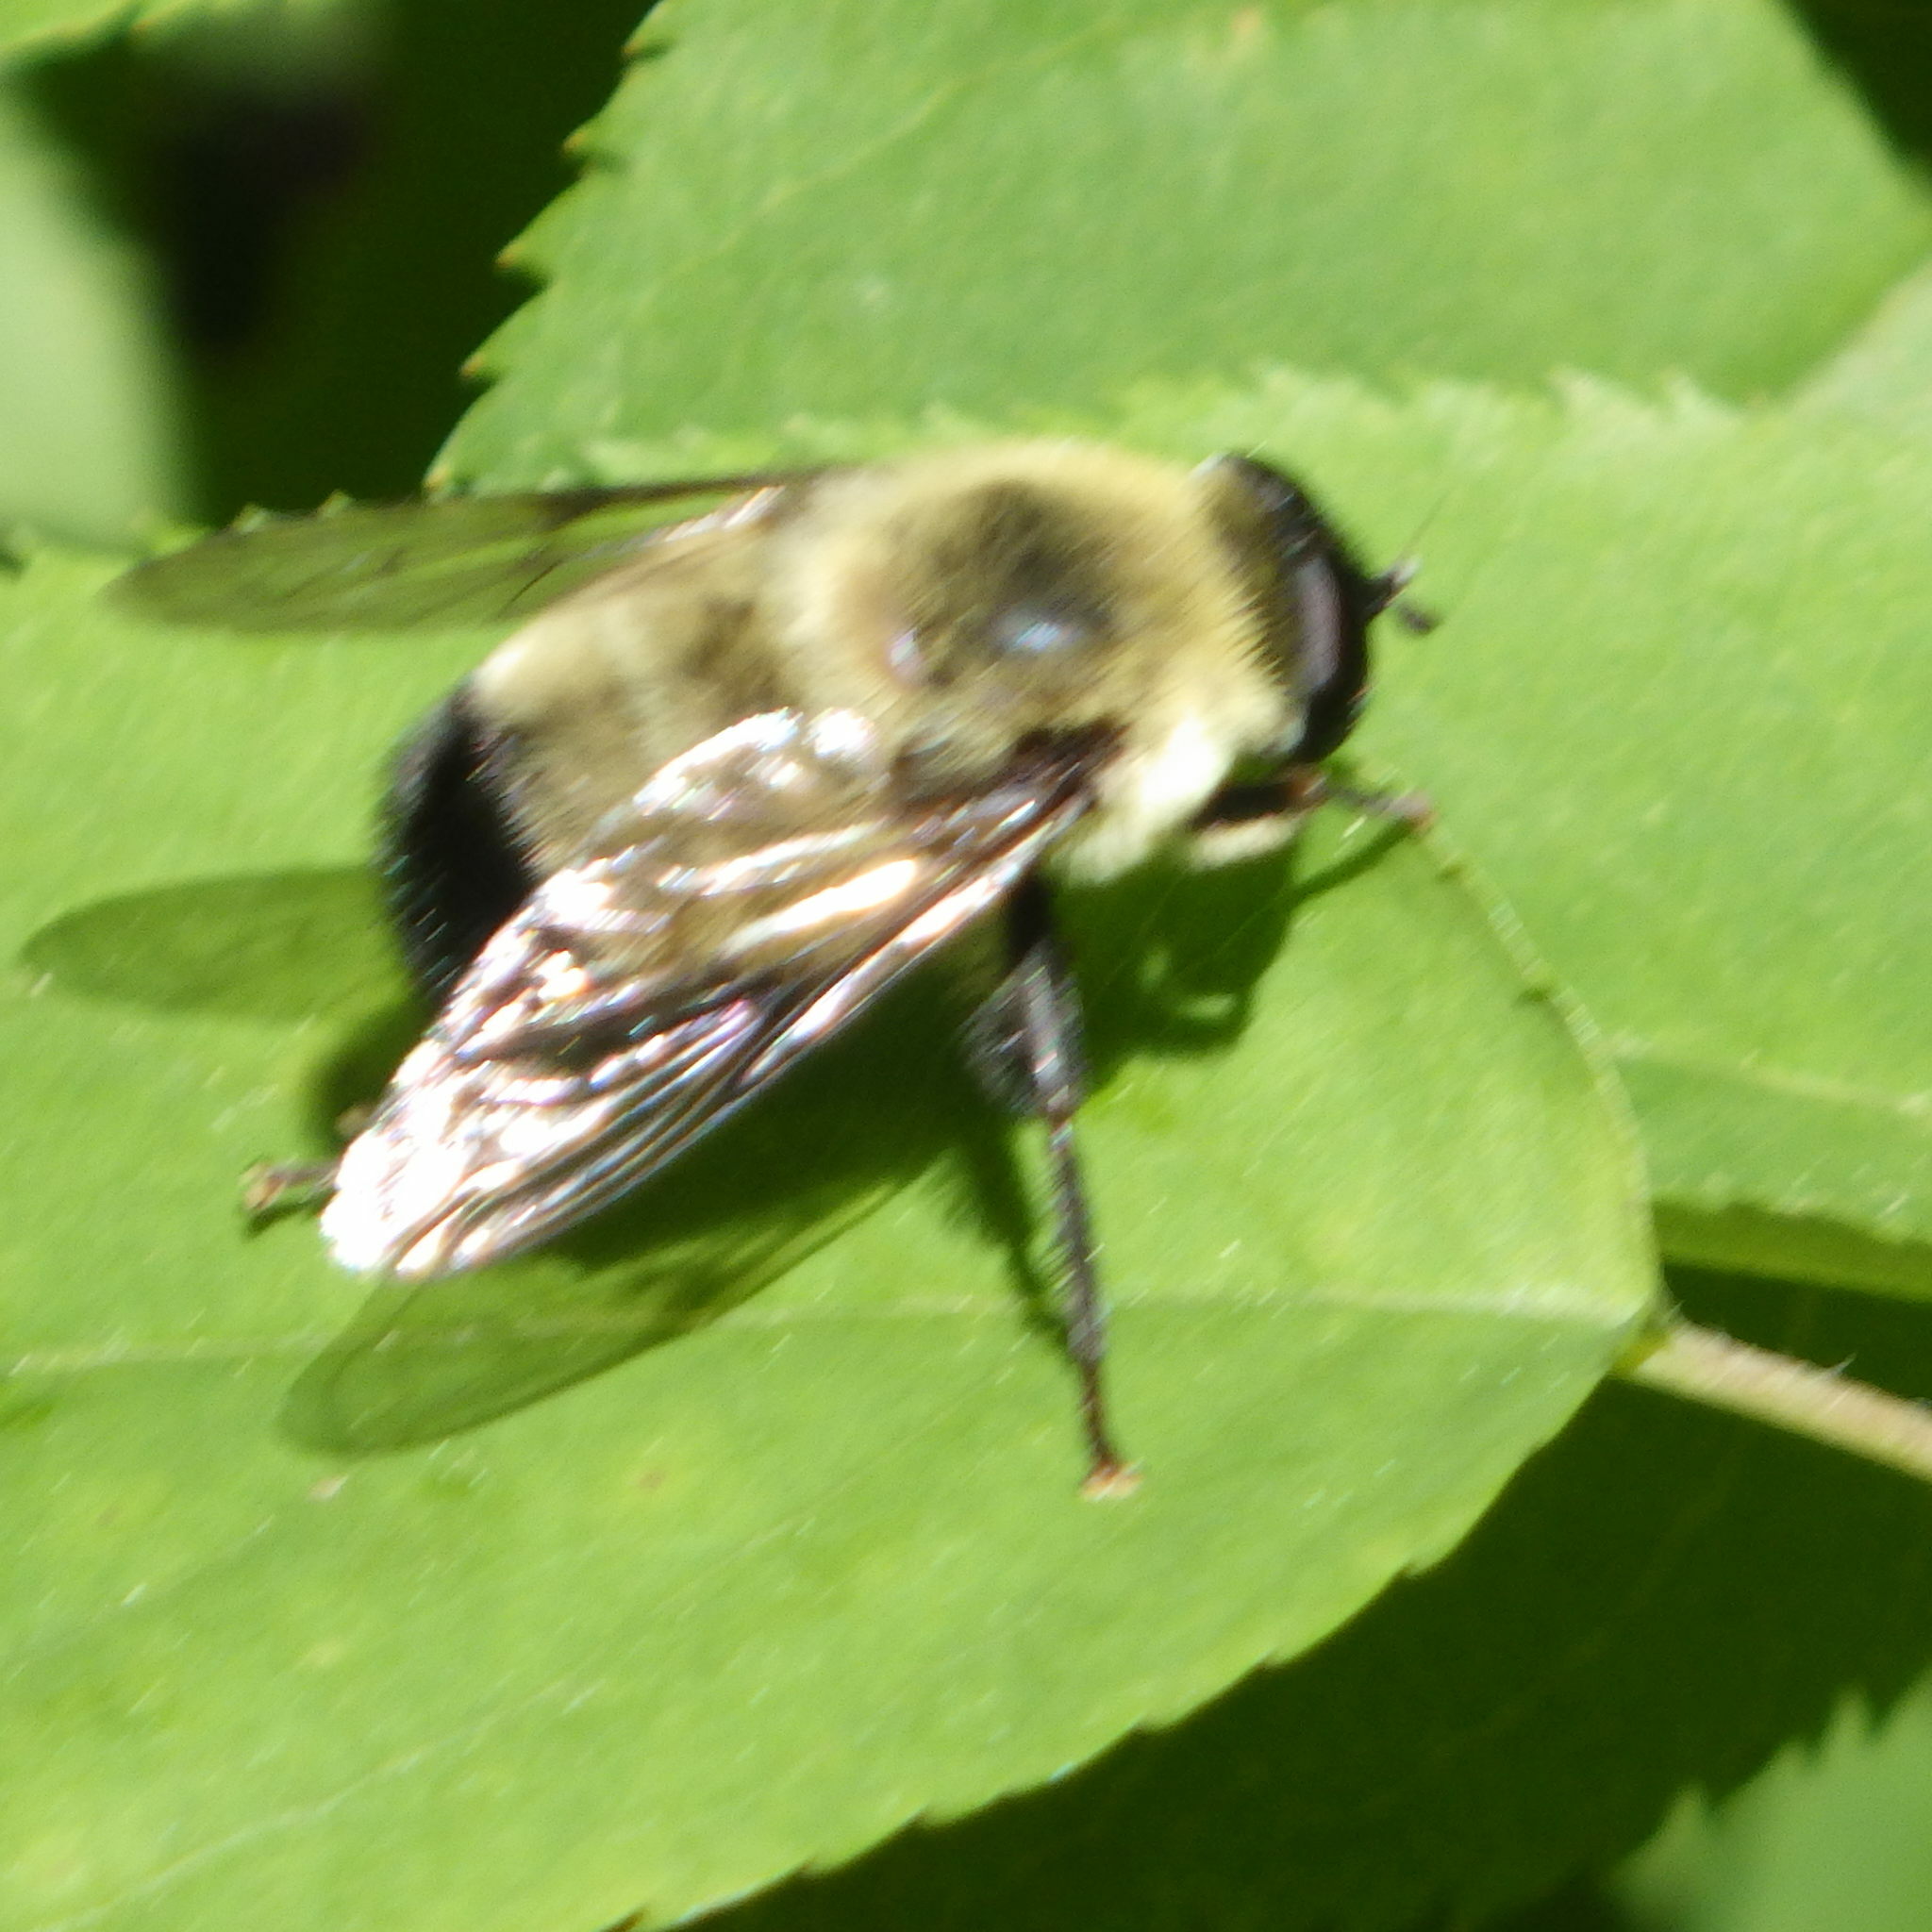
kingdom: Animalia
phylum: Arthropoda
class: Insecta
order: Diptera
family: Syrphidae
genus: Imatisma
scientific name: Imatisma posticata
